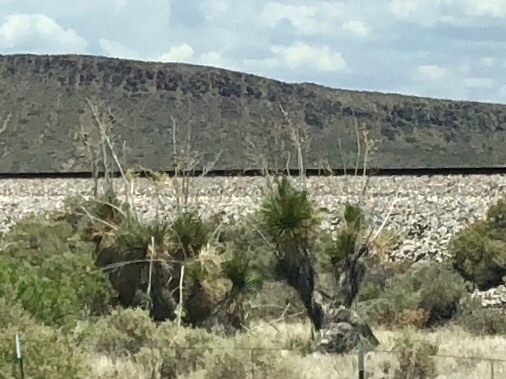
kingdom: Plantae
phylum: Tracheophyta
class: Liliopsida
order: Asparagales
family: Asparagaceae
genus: Yucca
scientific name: Yucca elata
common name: Palmella
